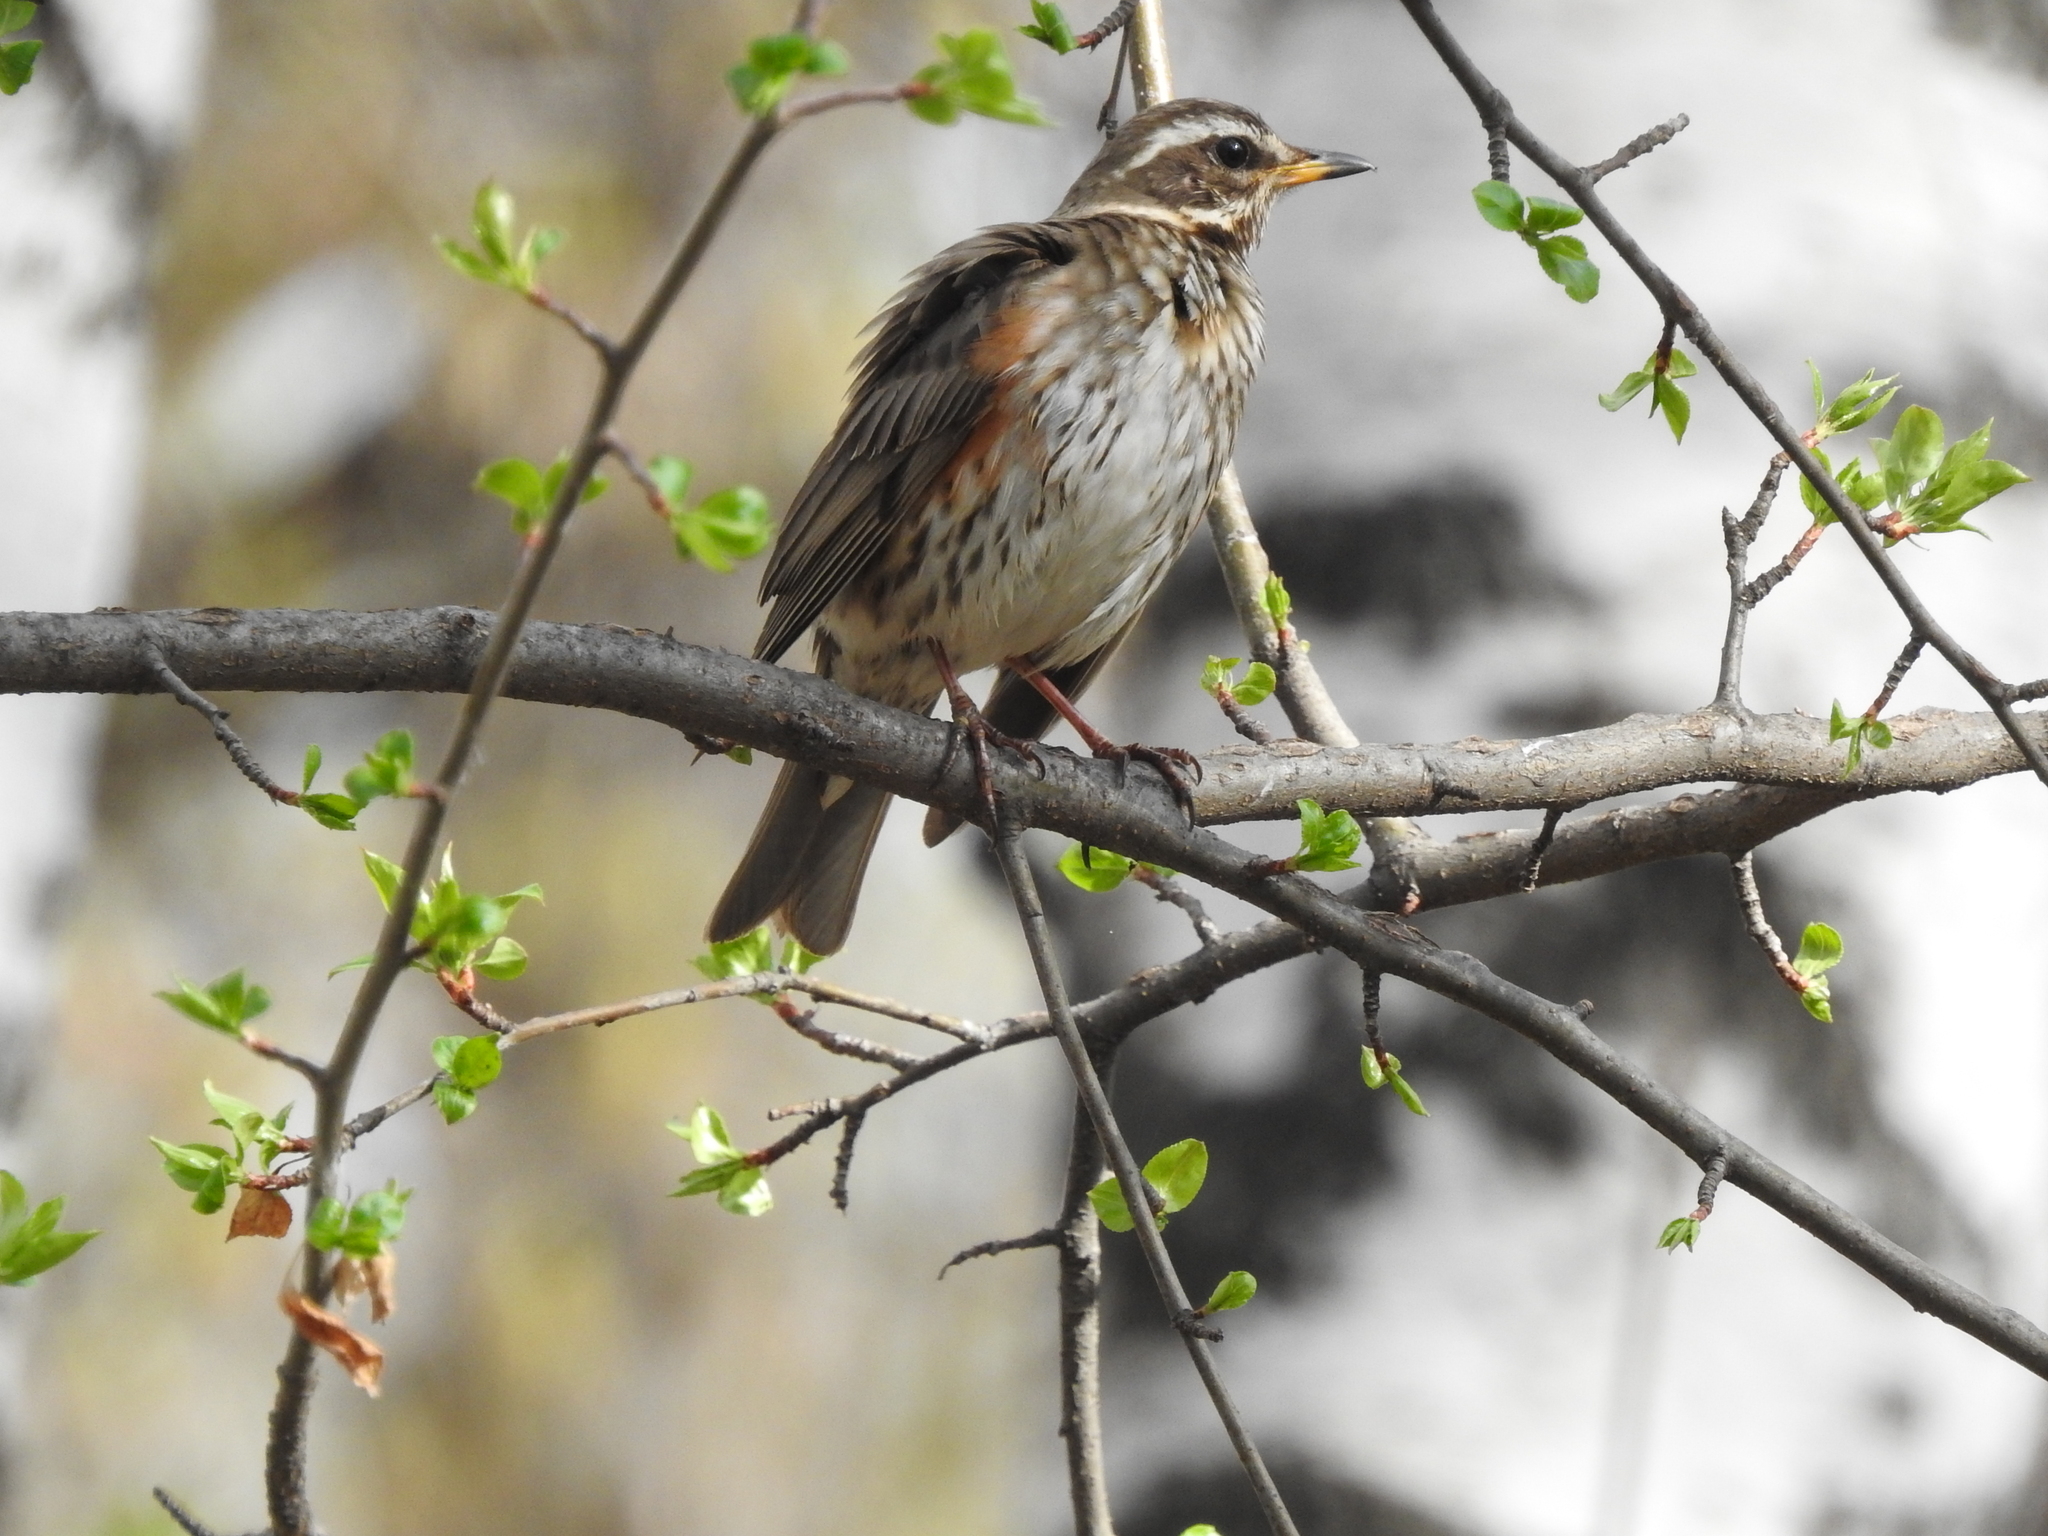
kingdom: Animalia
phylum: Chordata
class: Aves
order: Passeriformes
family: Turdidae
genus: Turdus
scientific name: Turdus iliacus
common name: Redwing
